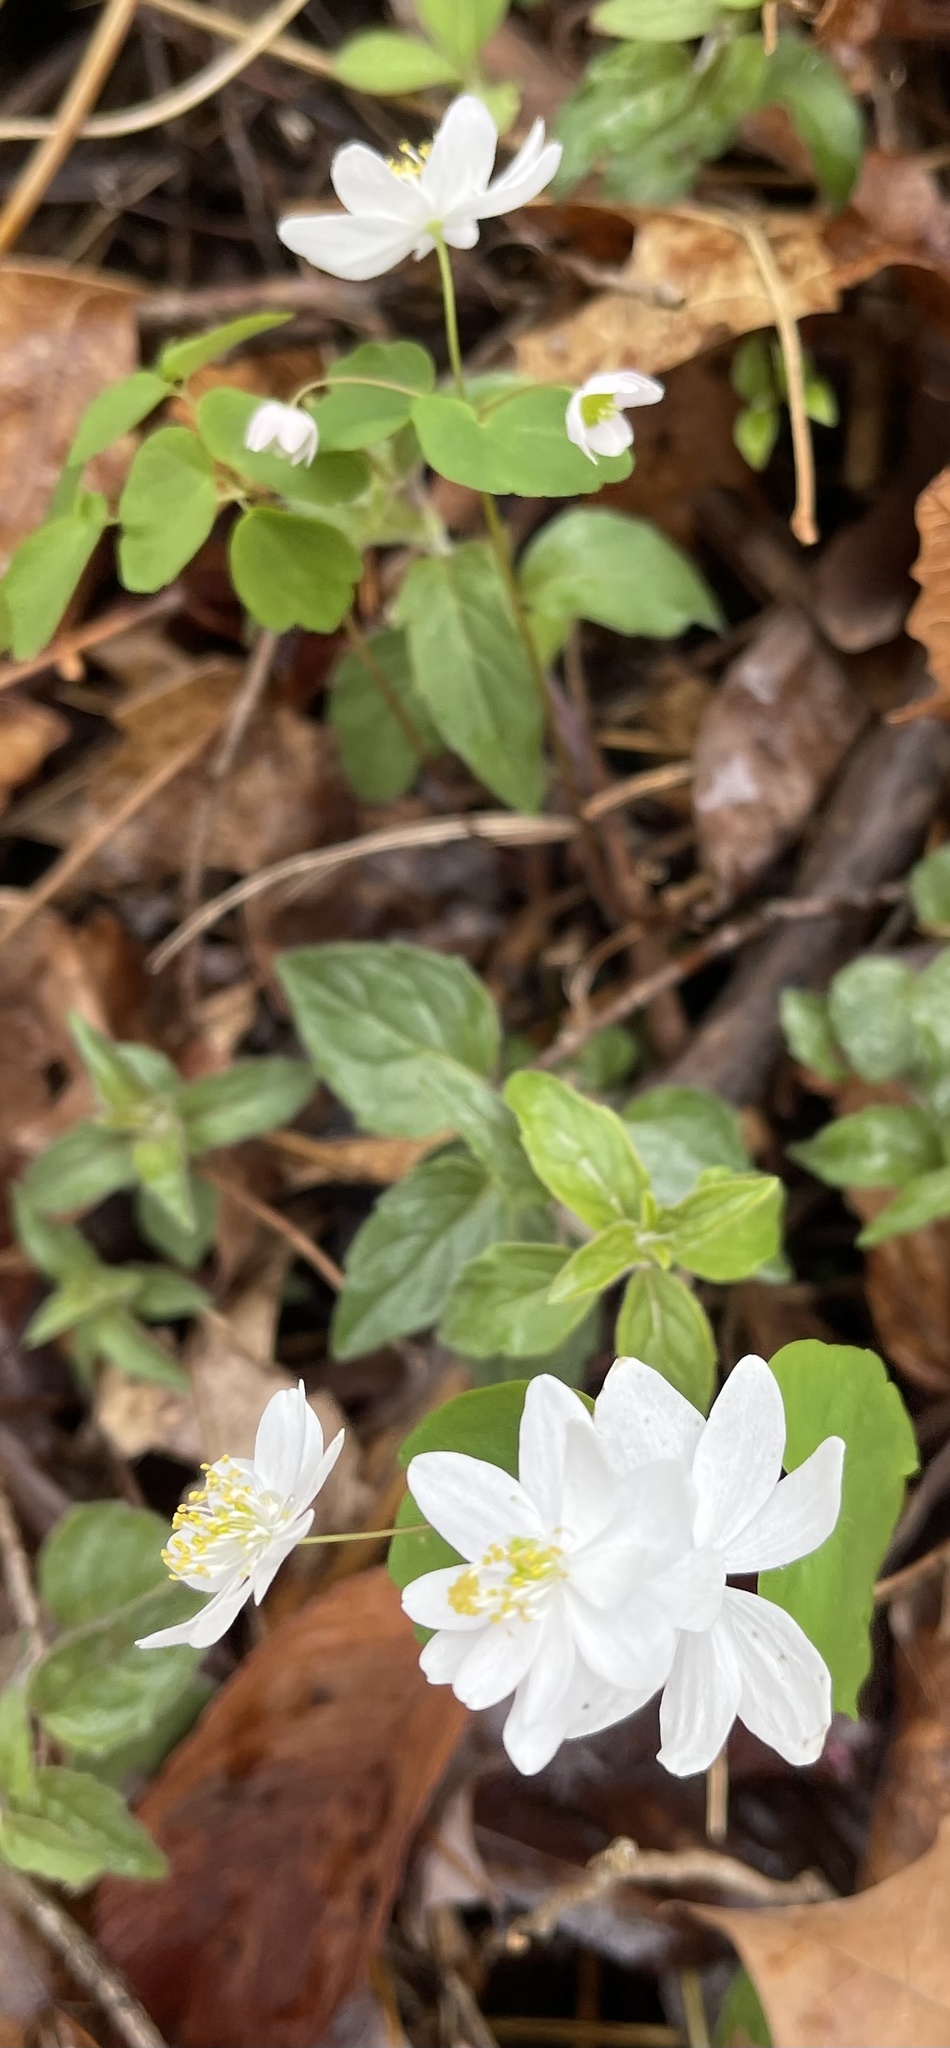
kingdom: Plantae
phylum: Tracheophyta
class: Magnoliopsida
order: Ranunculales
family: Ranunculaceae
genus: Thalictrum
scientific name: Thalictrum thalictroides
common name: Rue-anemone
